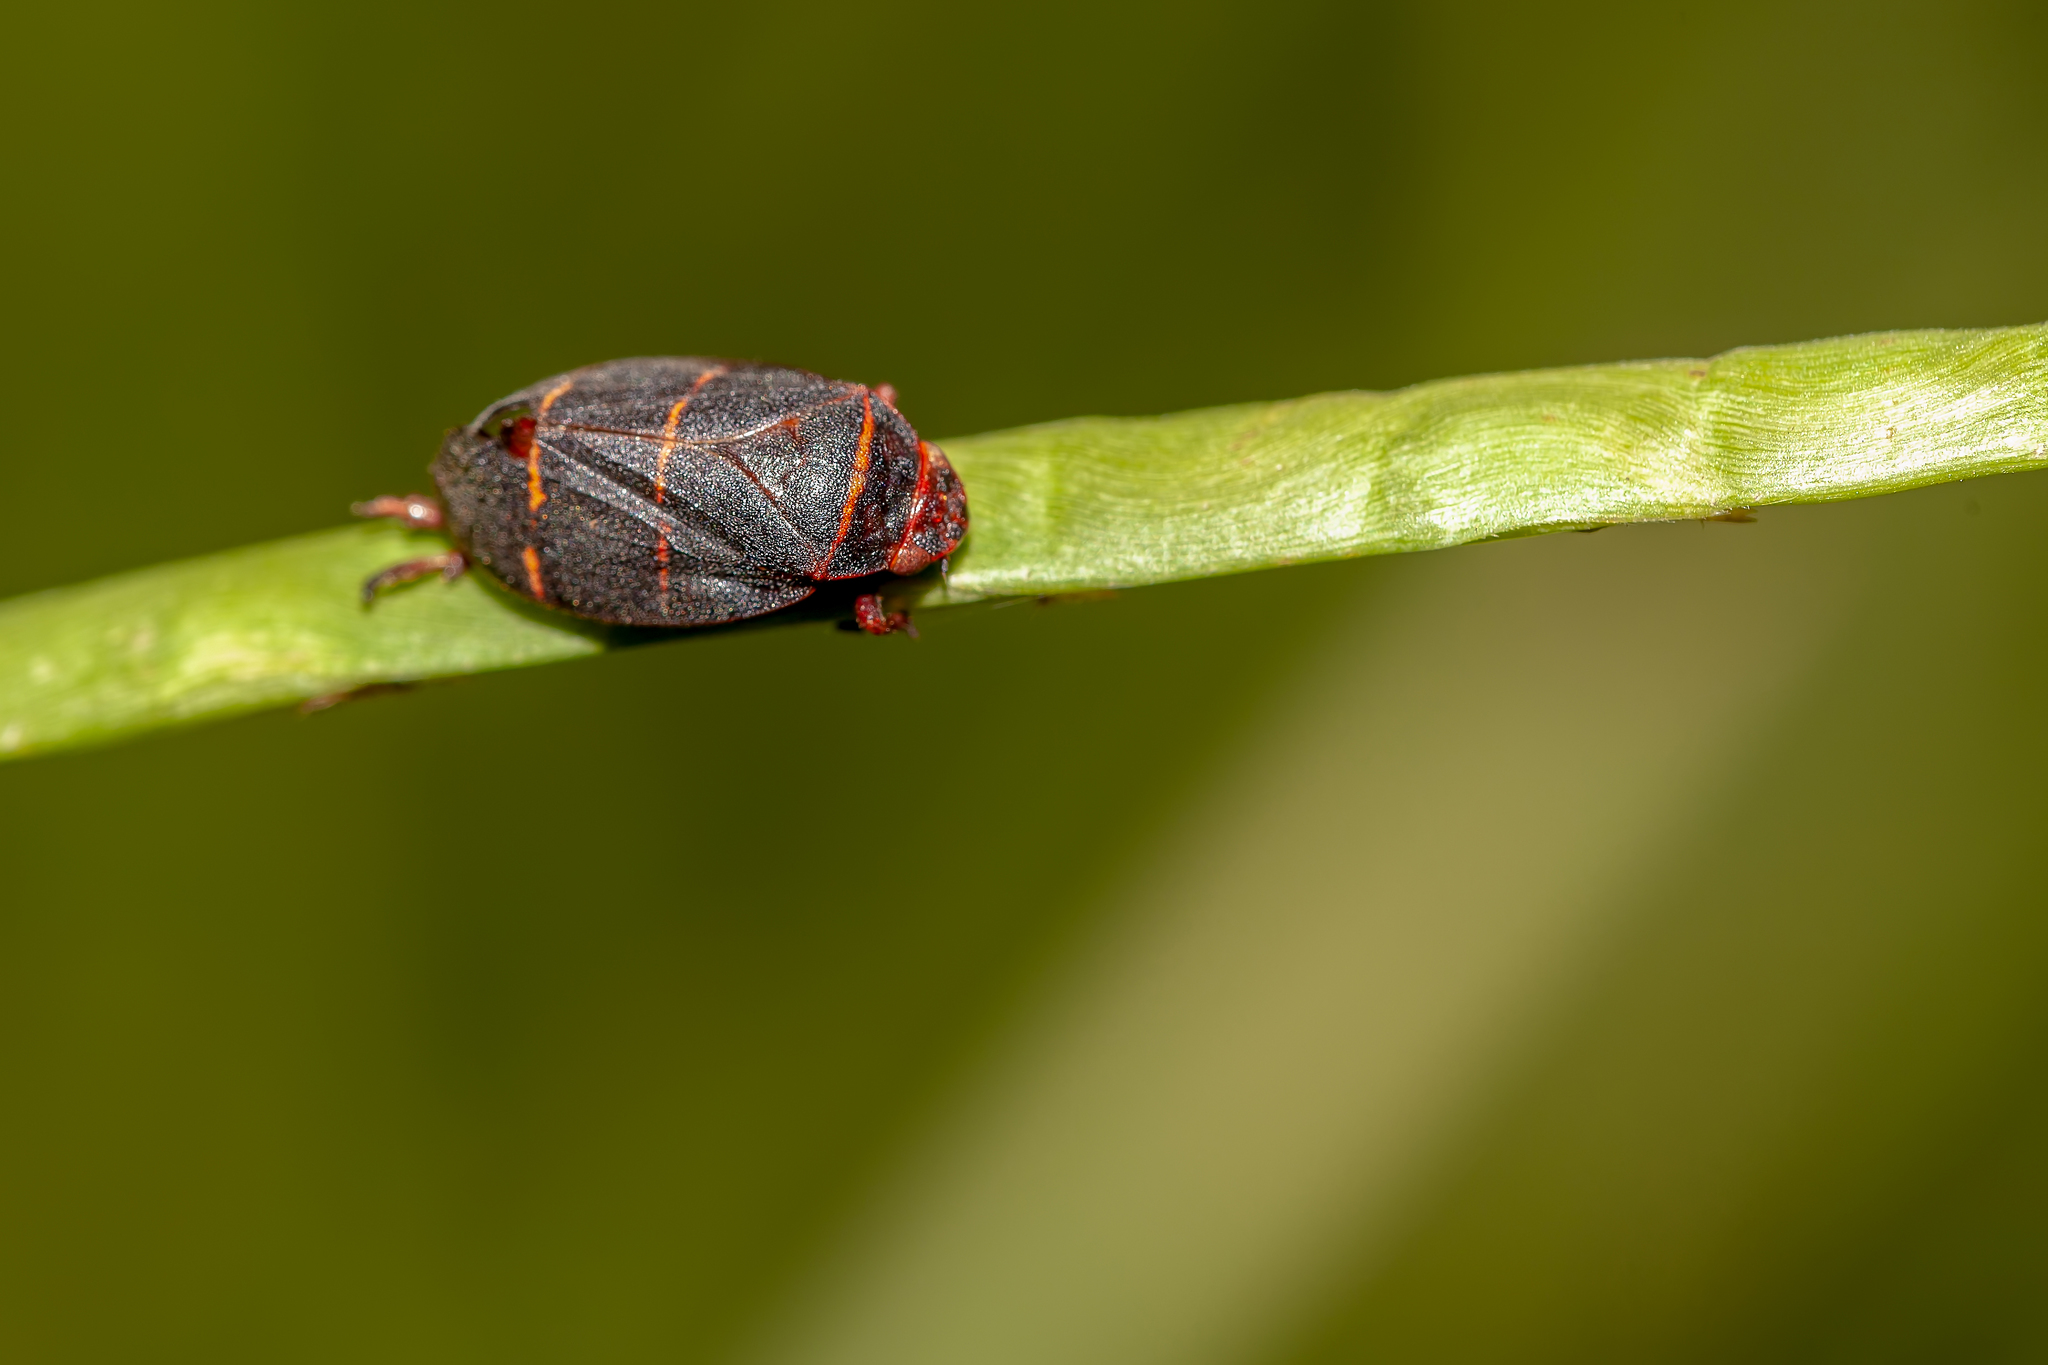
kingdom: Animalia
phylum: Arthropoda
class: Insecta
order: Hemiptera
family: Cercopidae
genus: Prosapia
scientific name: Prosapia bicincta
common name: Twolined spittlebug
